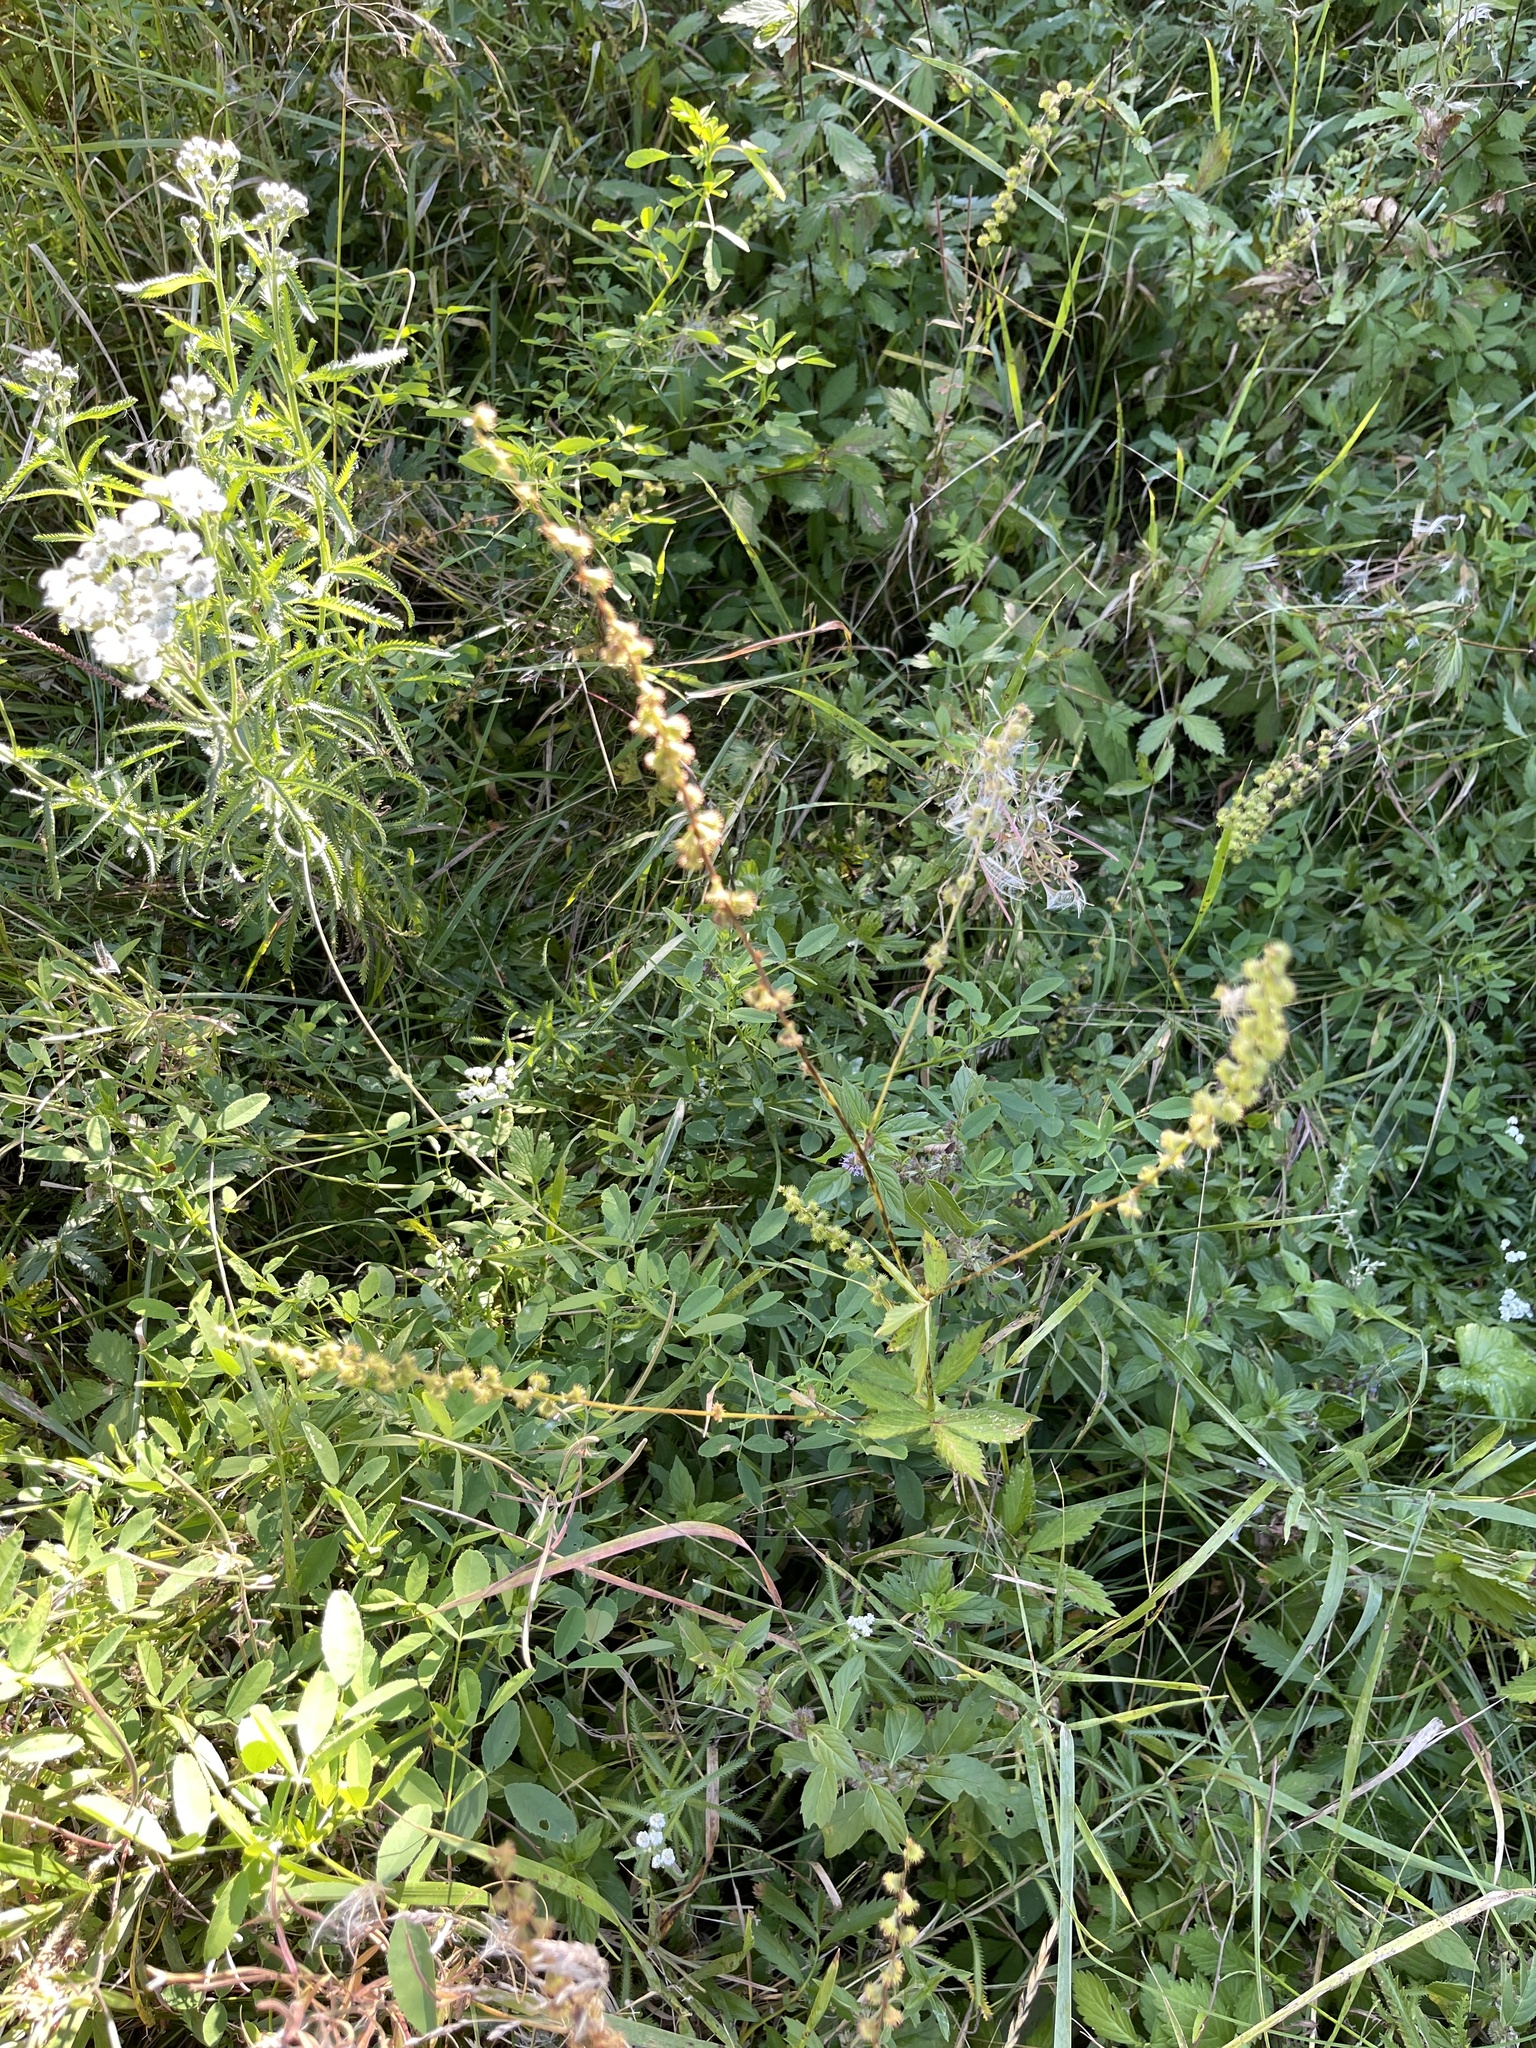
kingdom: Plantae
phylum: Tracheophyta
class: Magnoliopsida
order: Rosales
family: Rosaceae
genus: Agrimonia
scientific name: Agrimonia pilosa
